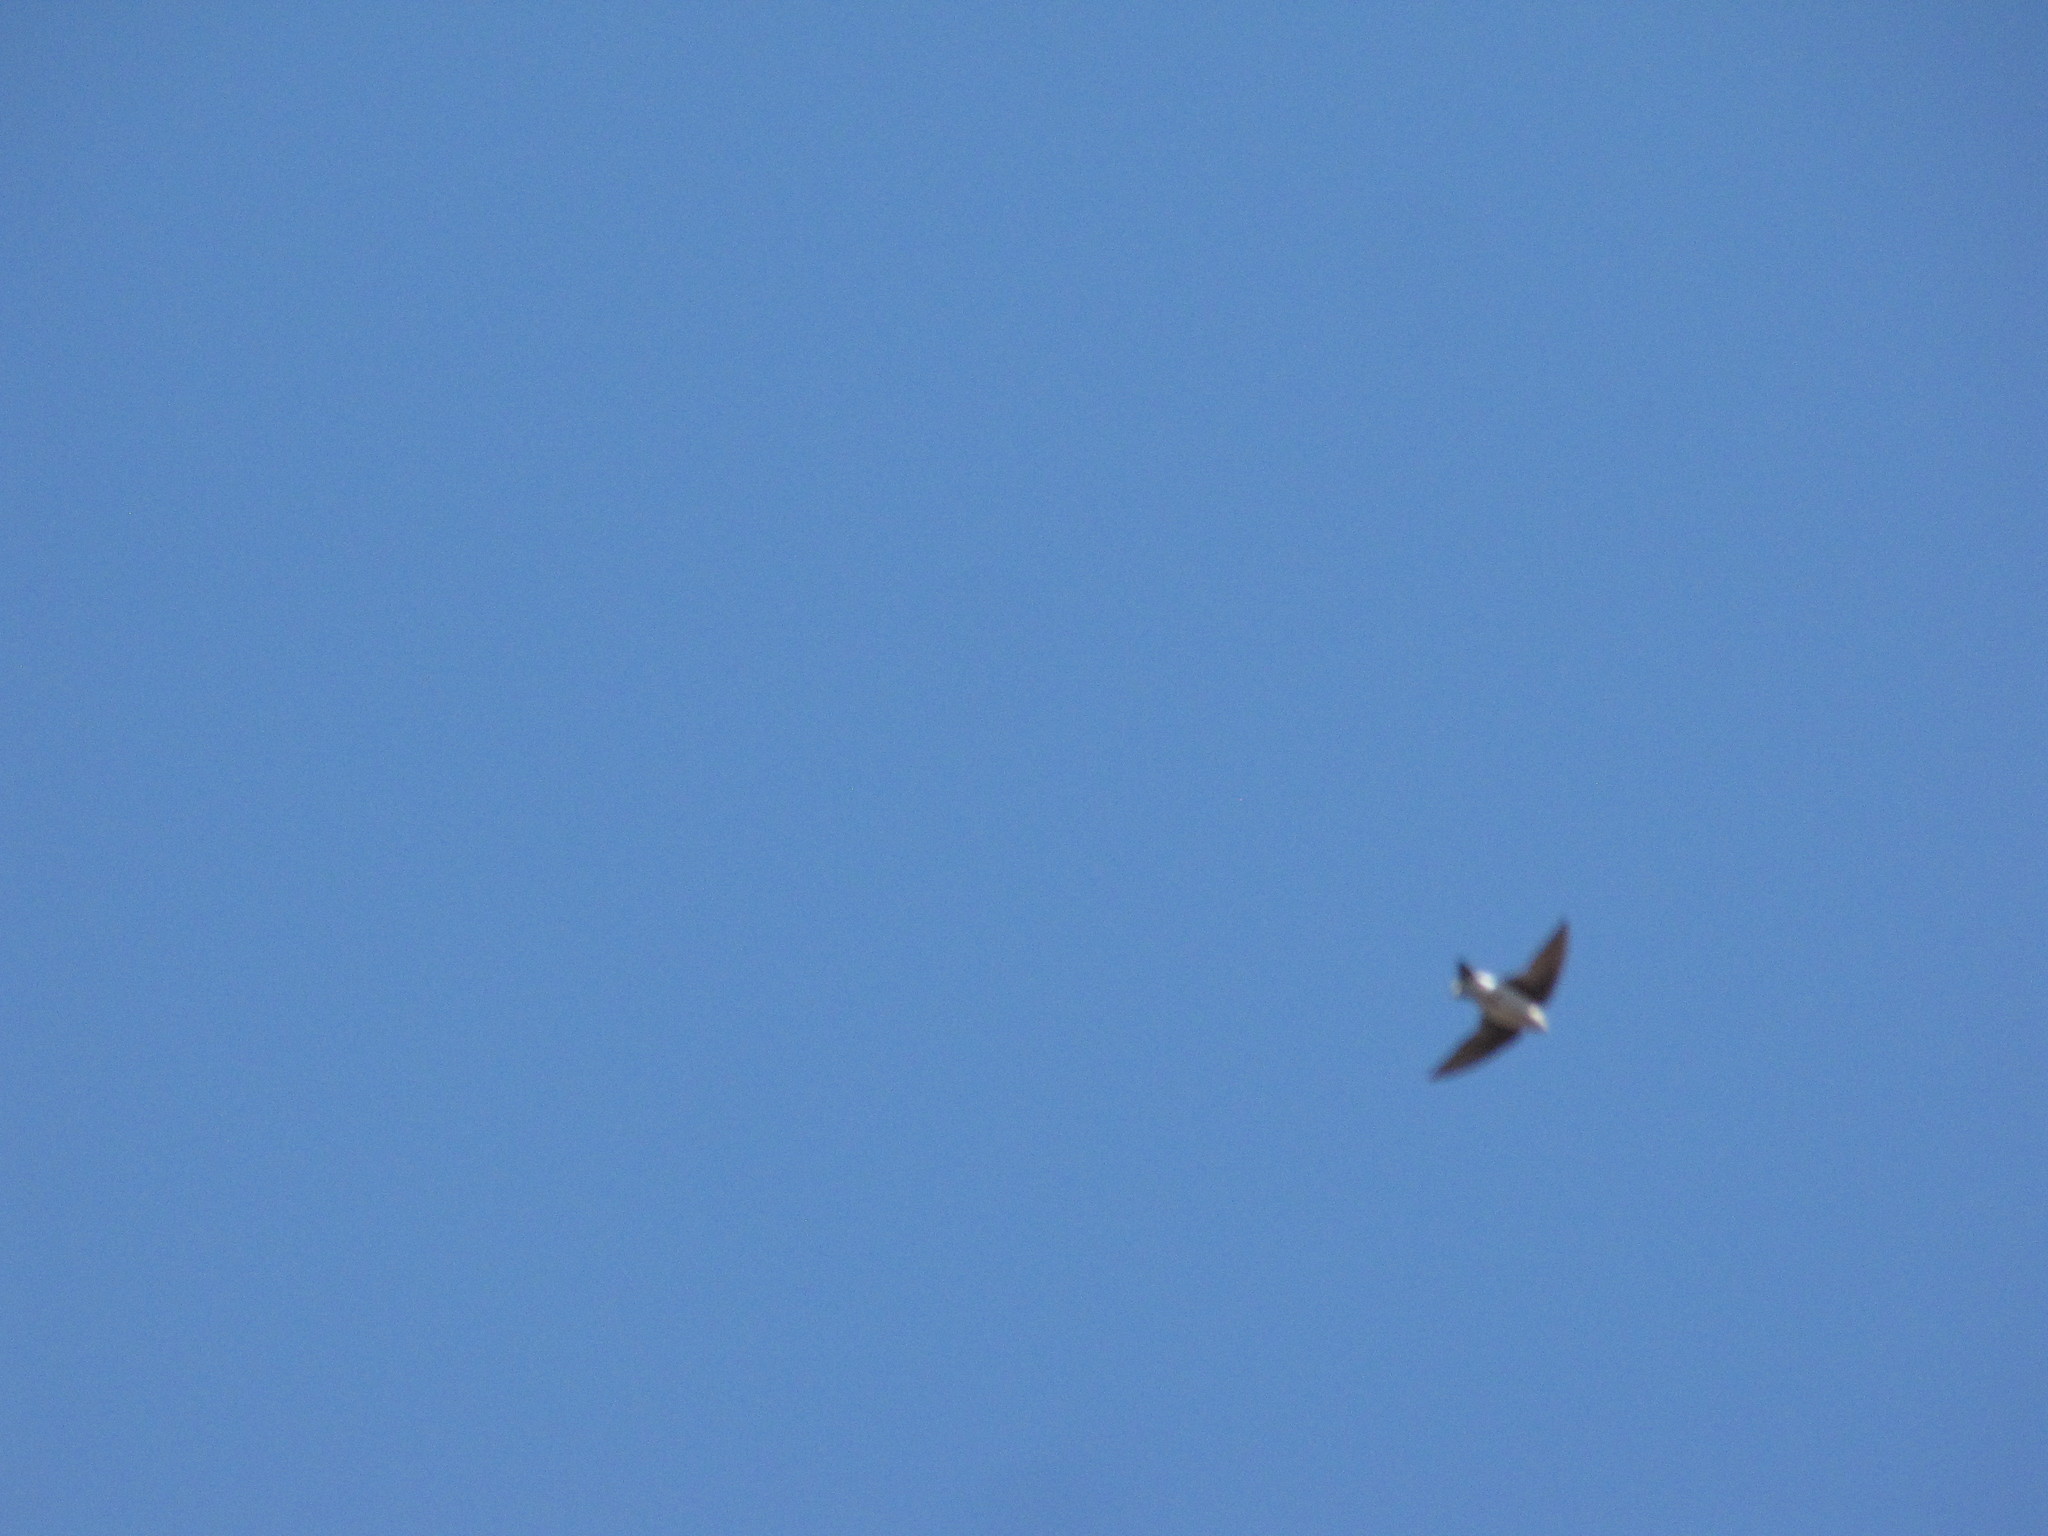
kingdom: Animalia
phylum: Chordata
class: Aves
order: Passeriformes
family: Hirundinidae
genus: Tachycineta
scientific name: Tachycineta bicolor
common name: Tree swallow
